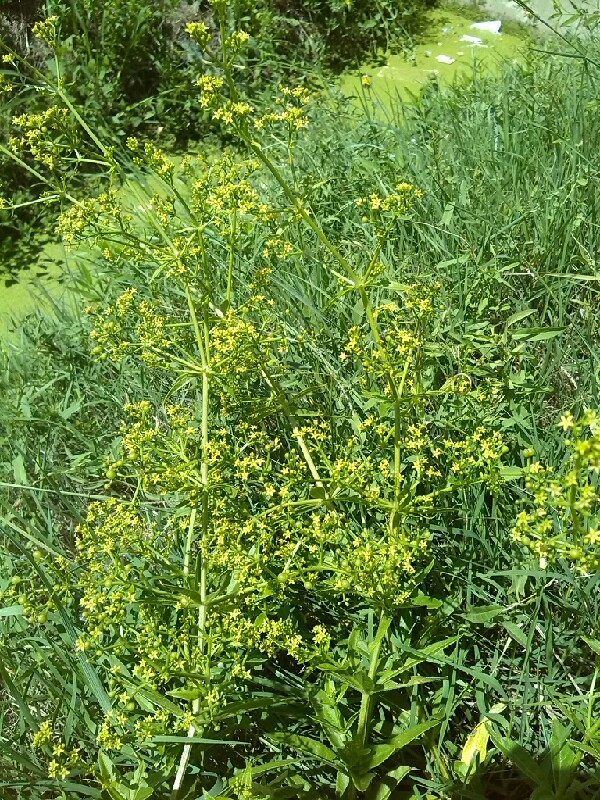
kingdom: Plantae
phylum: Tracheophyta
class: Magnoliopsida
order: Gentianales
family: Rubiaceae
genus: Rubia
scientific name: Rubia tinctorum
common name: Dyer's madder
